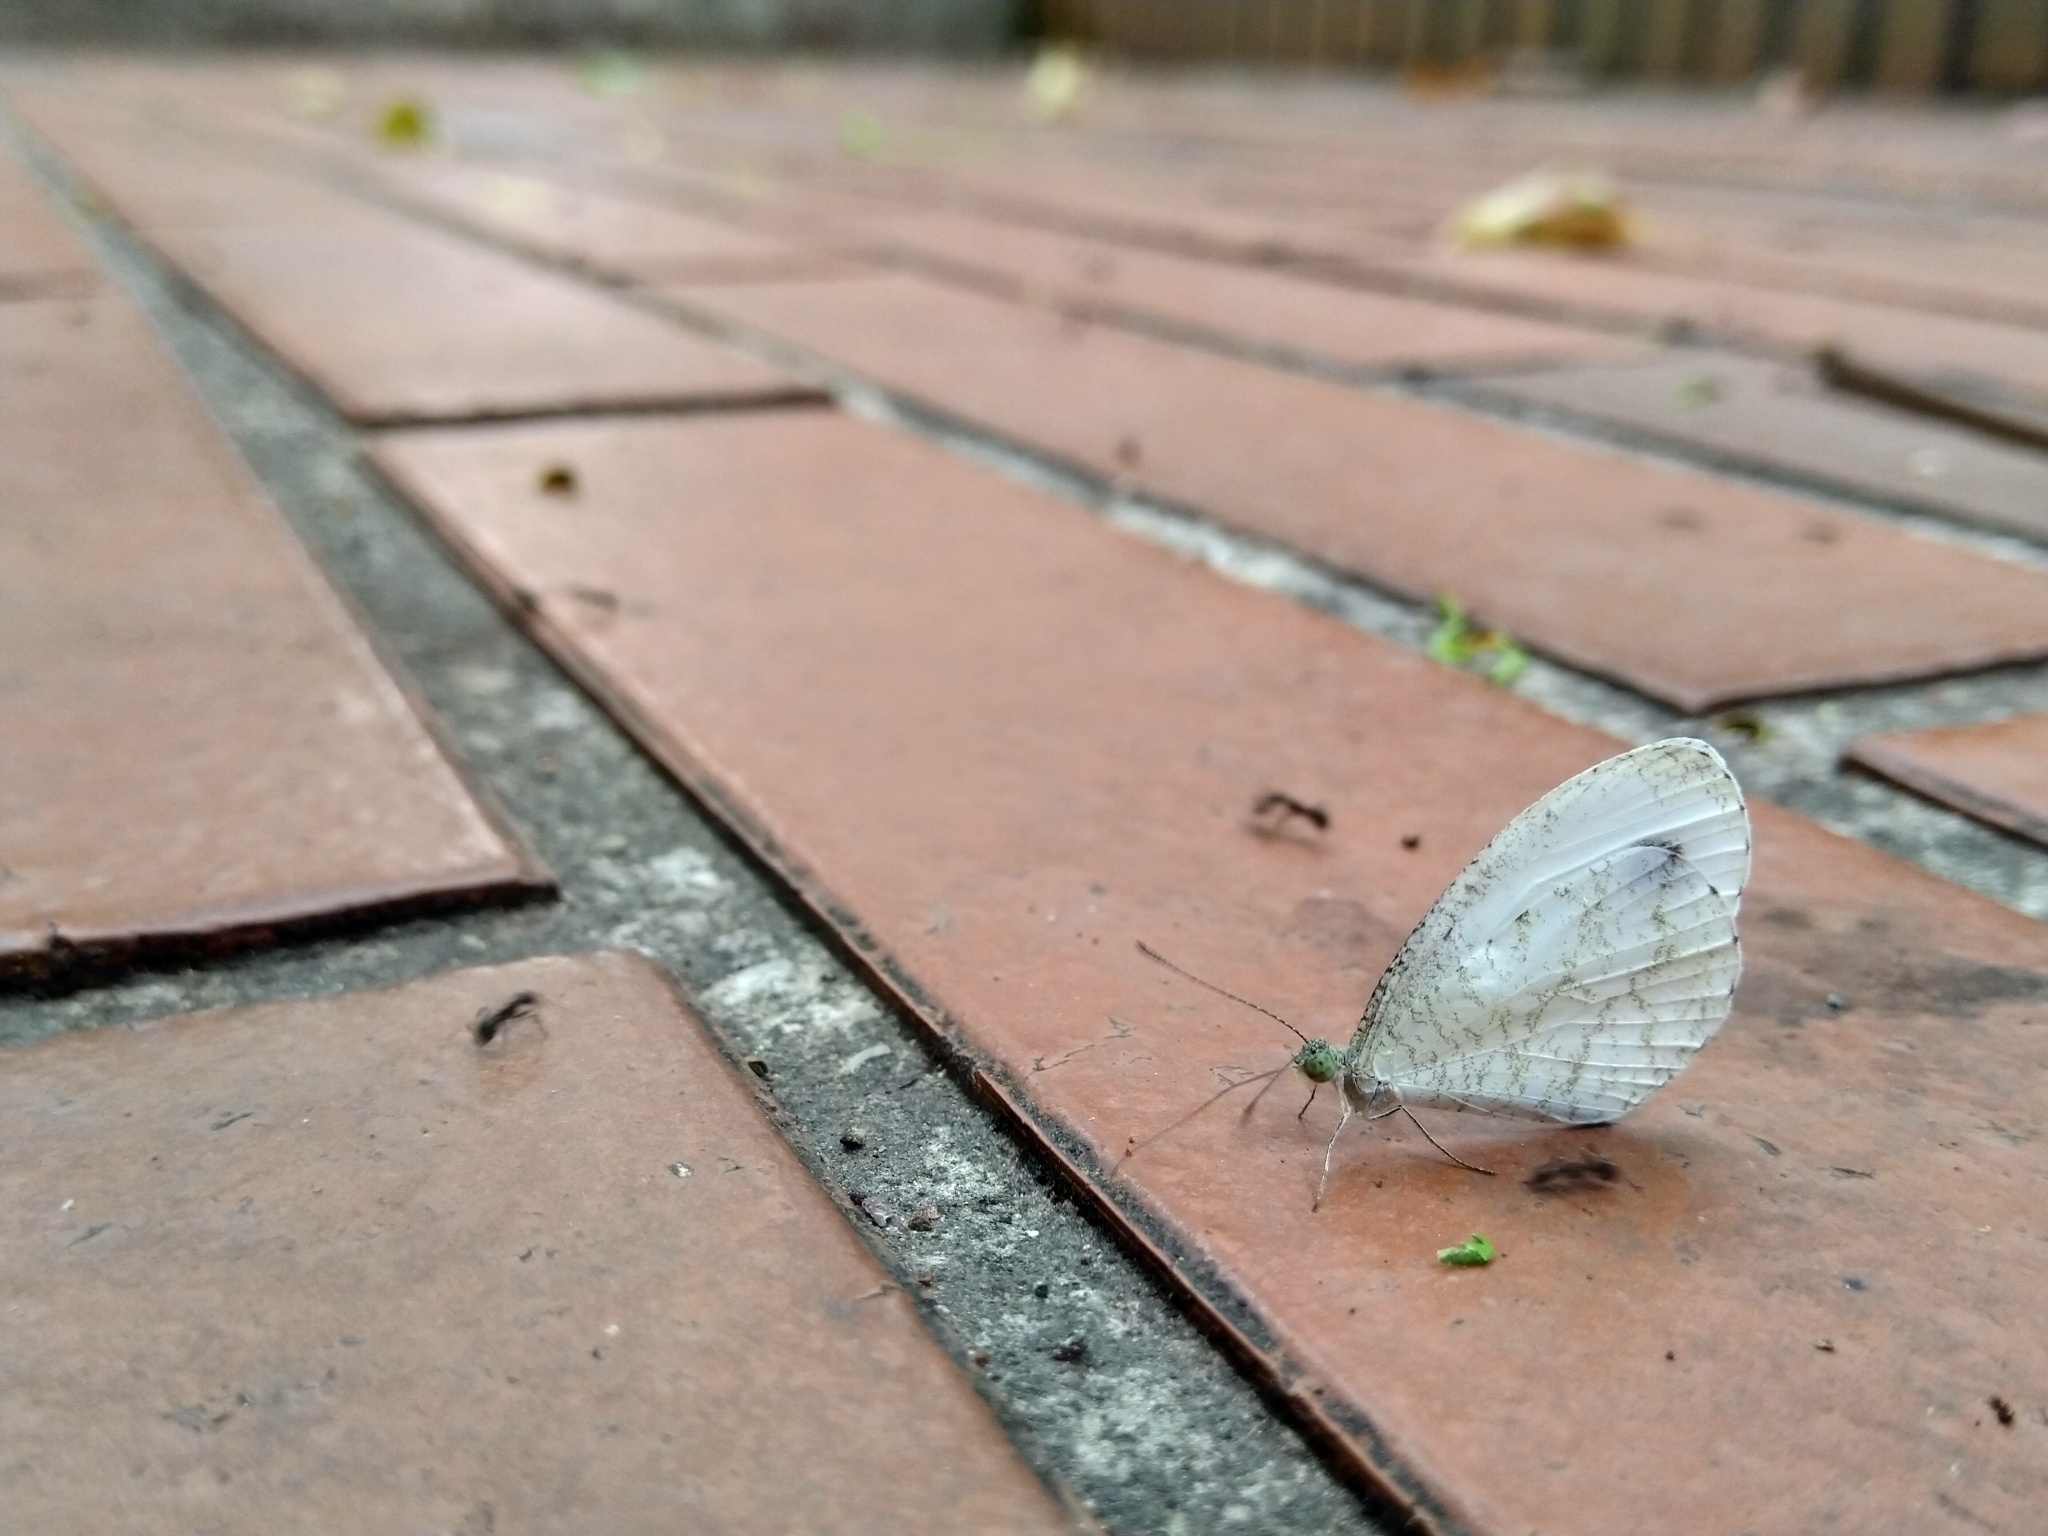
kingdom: Animalia
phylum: Arthropoda
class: Insecta
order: Lepidoptera
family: Pieridae
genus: Leptosia
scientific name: Leptosia nina
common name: Psyche
